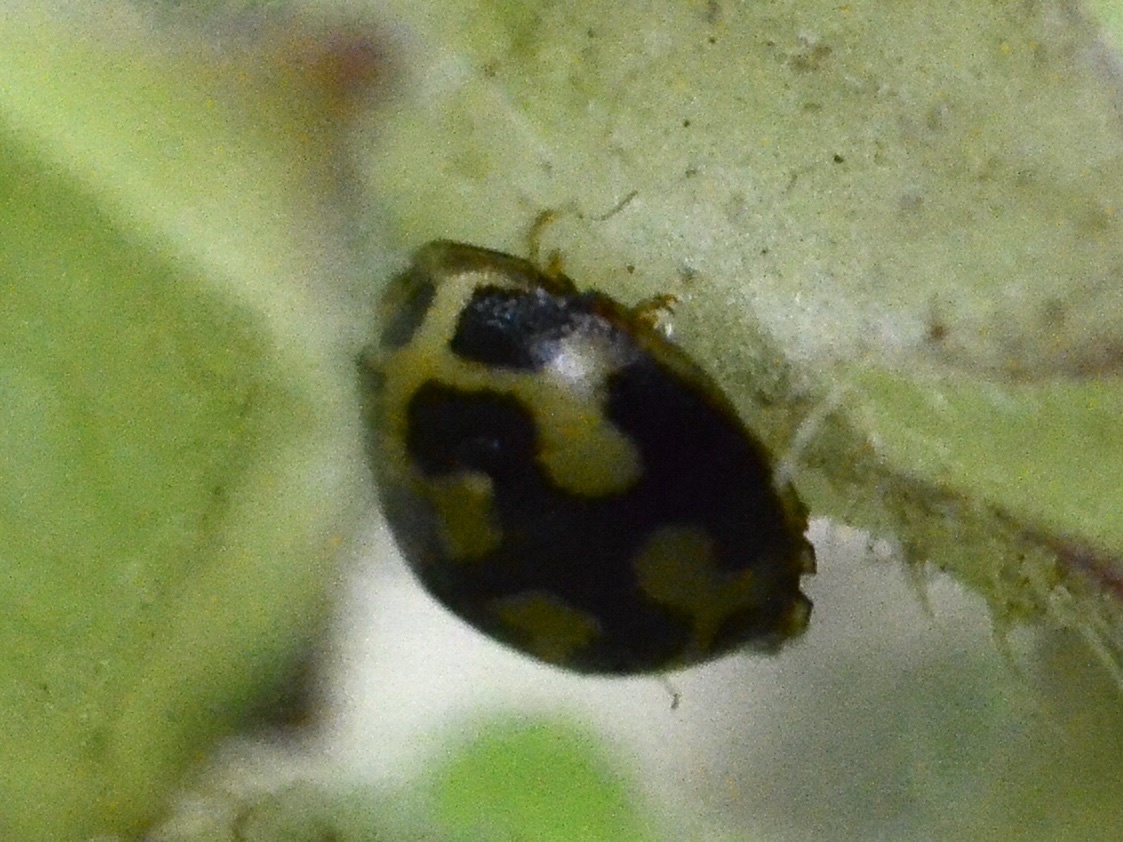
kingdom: Animalia
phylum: Arthropoda
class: Insecta
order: Coleoptera
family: Coccinellidae
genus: Propylaea
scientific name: Propylaea quatuordecimpunctata
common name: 14-spotted ladybird beetle
